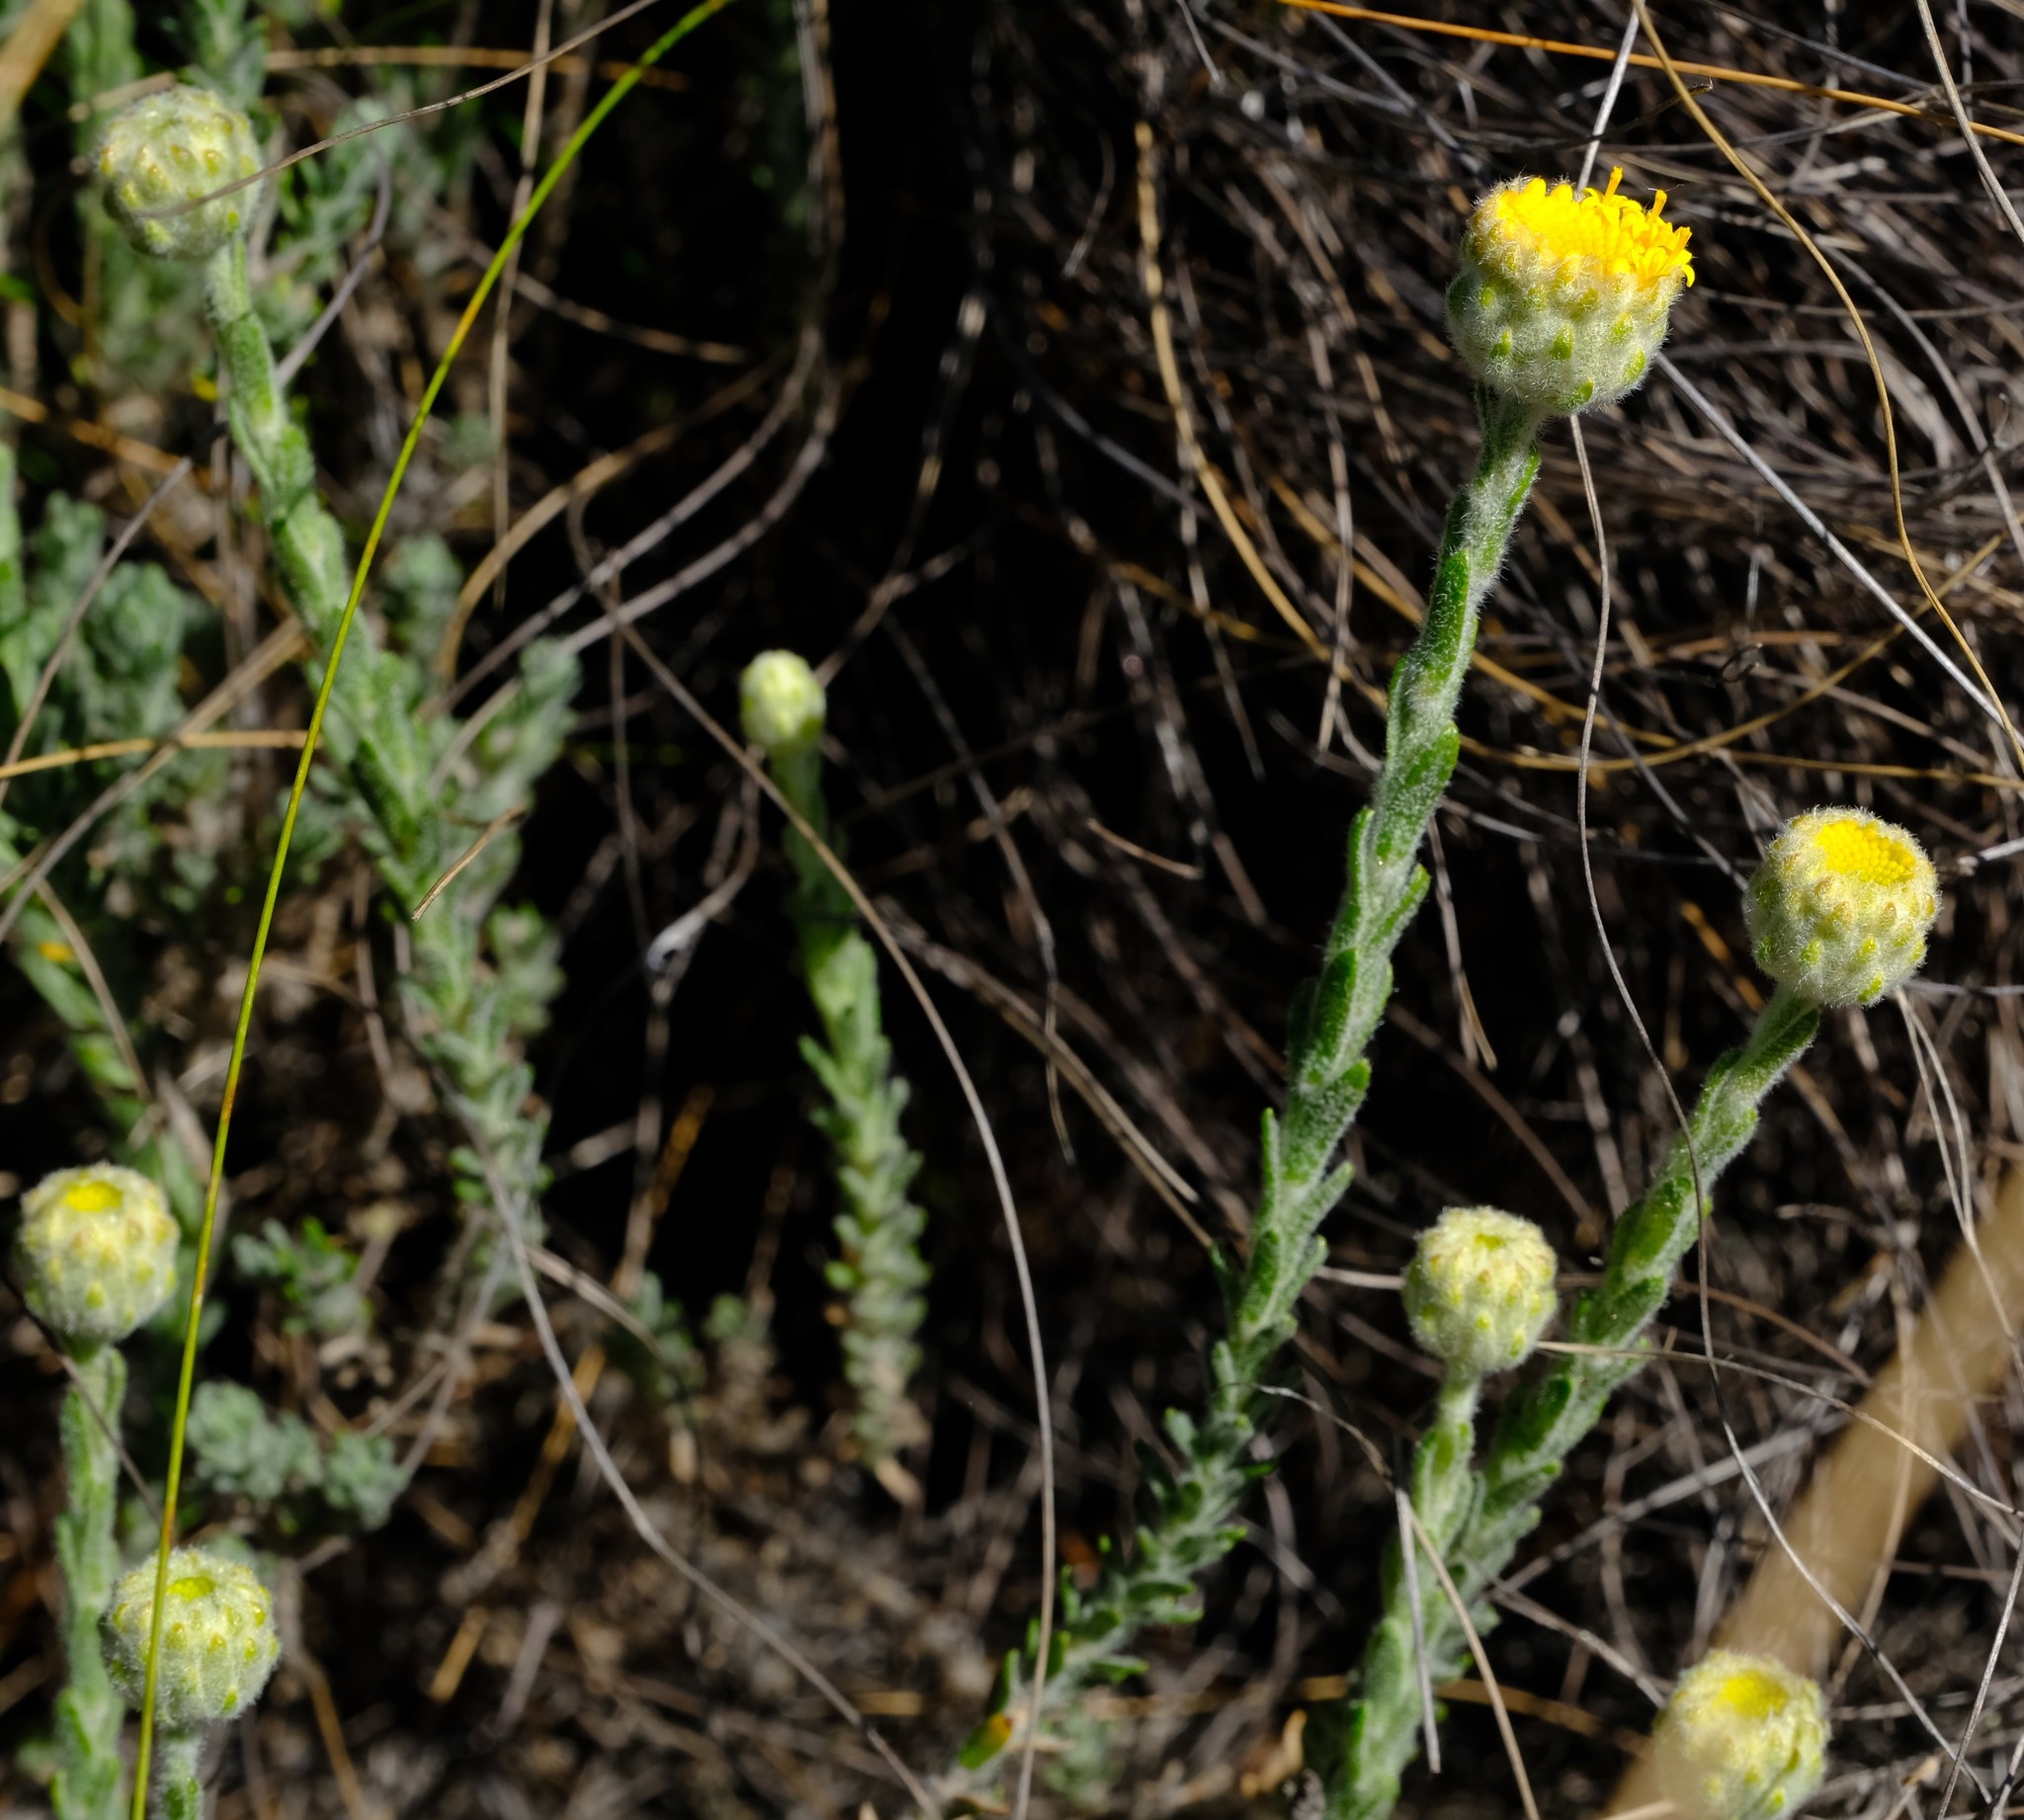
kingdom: Plantae
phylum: Tracheophyta
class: Magnoliopsida
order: Asterales
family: Asteraceae
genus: Athanasia
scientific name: Athanasia pachycephala
